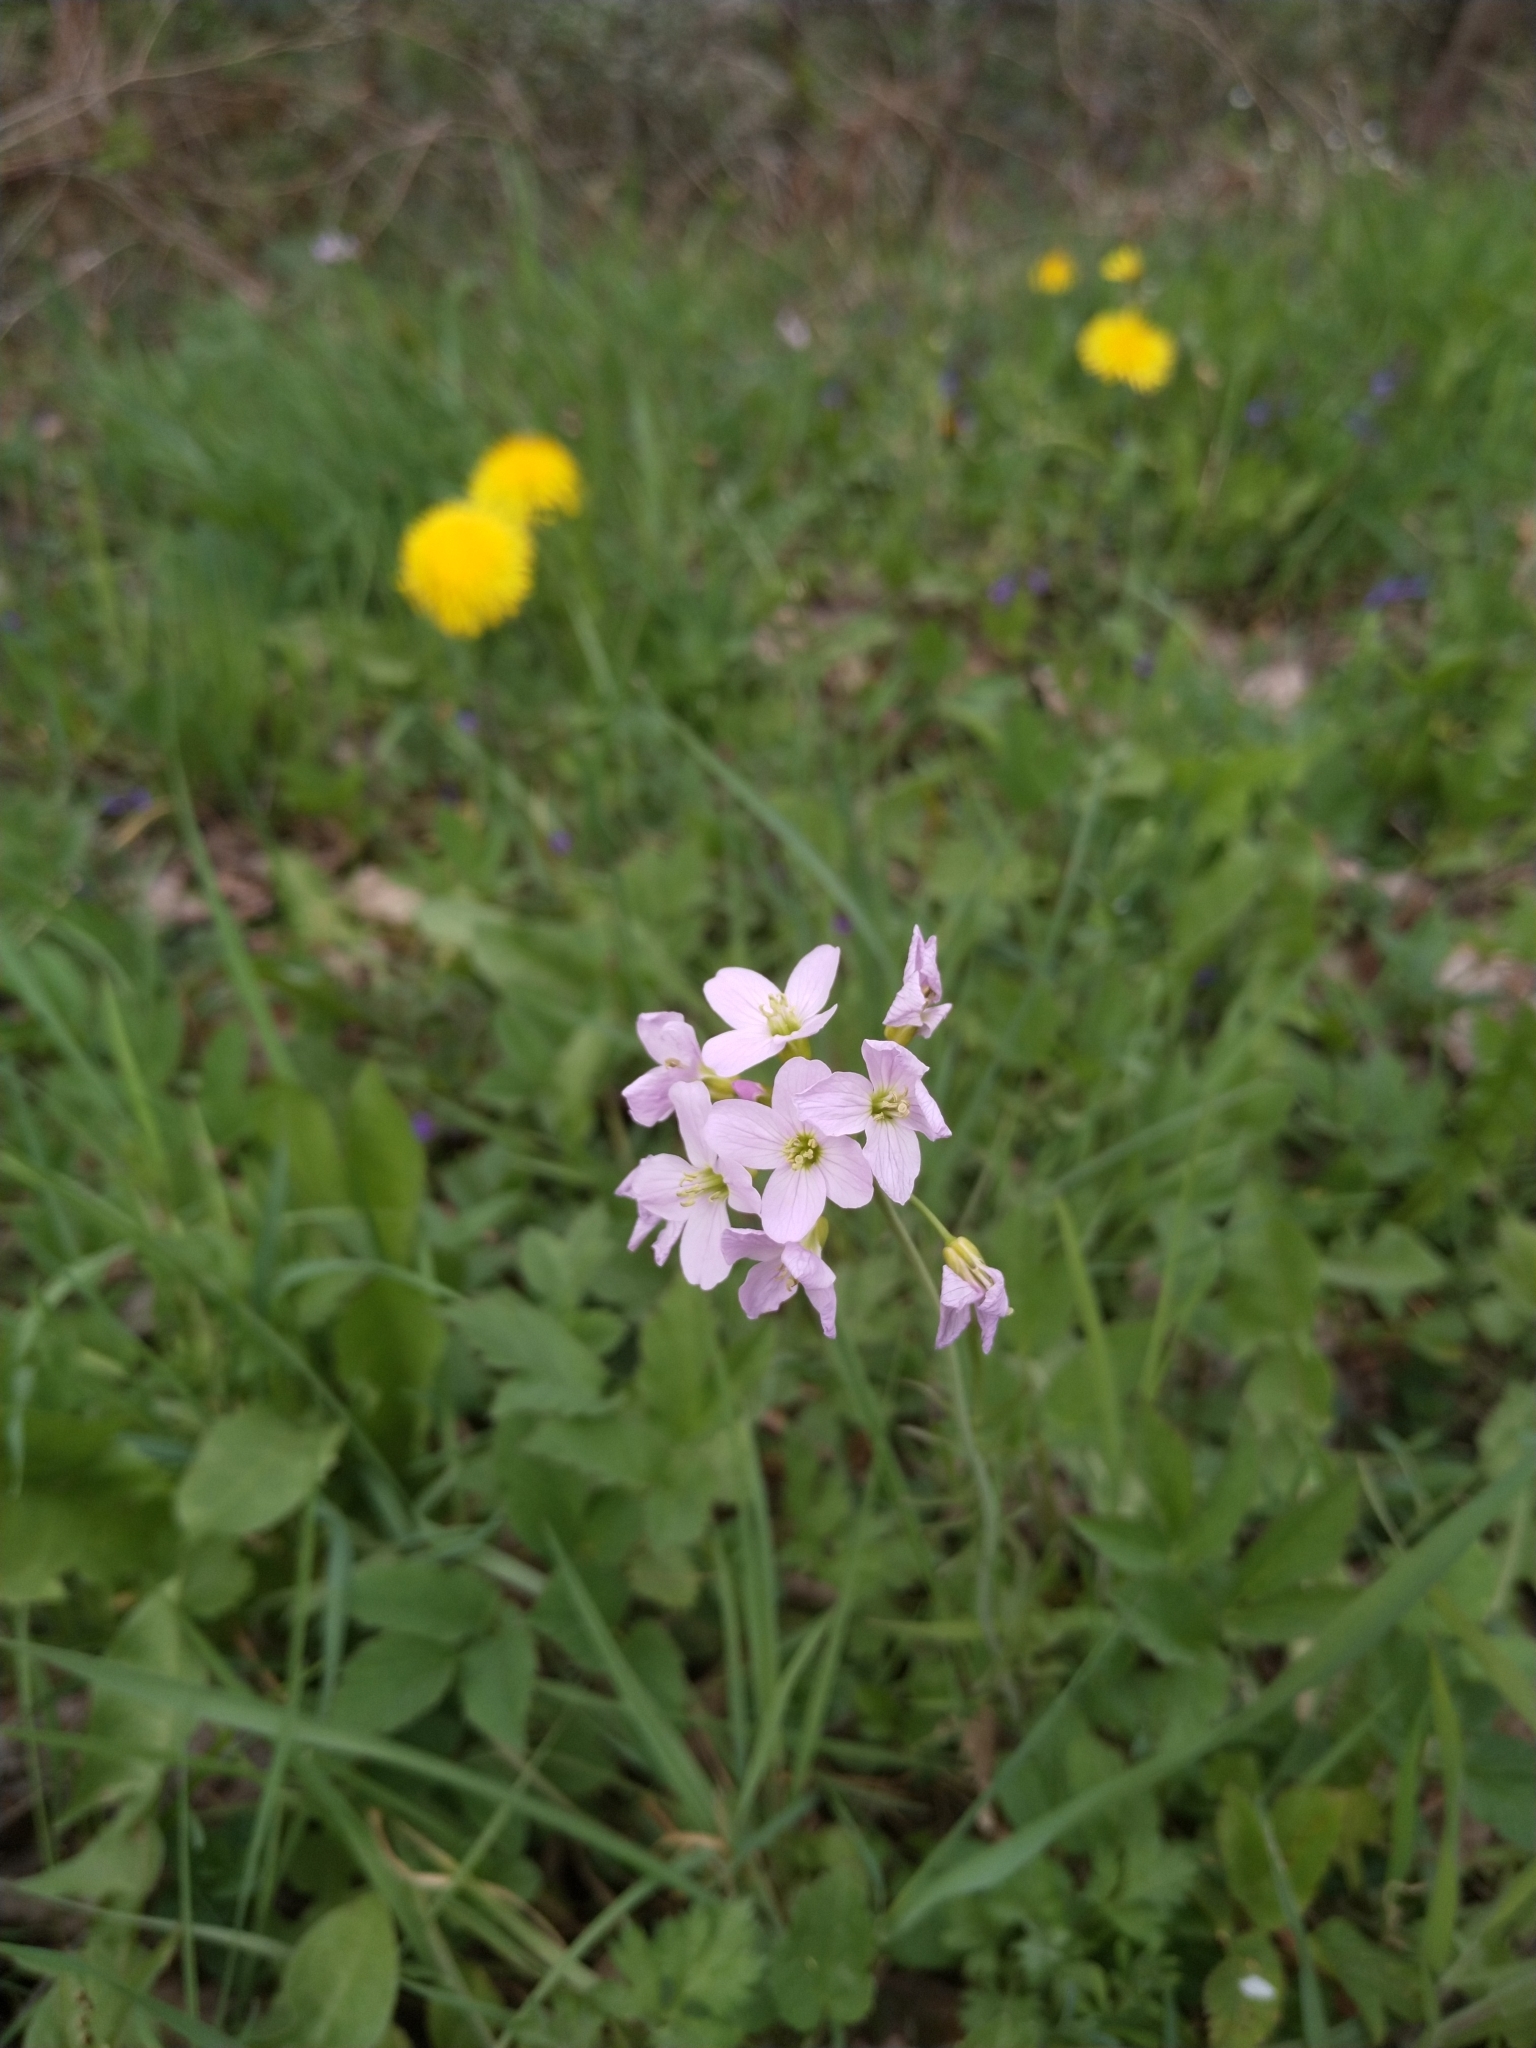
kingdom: Plantae
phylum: Tracheophyta
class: Magnoliopsida
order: Brassicales
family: Brassicaceae
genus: Cardamine
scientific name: Cardamine pratensis
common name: Cuckoo flower
